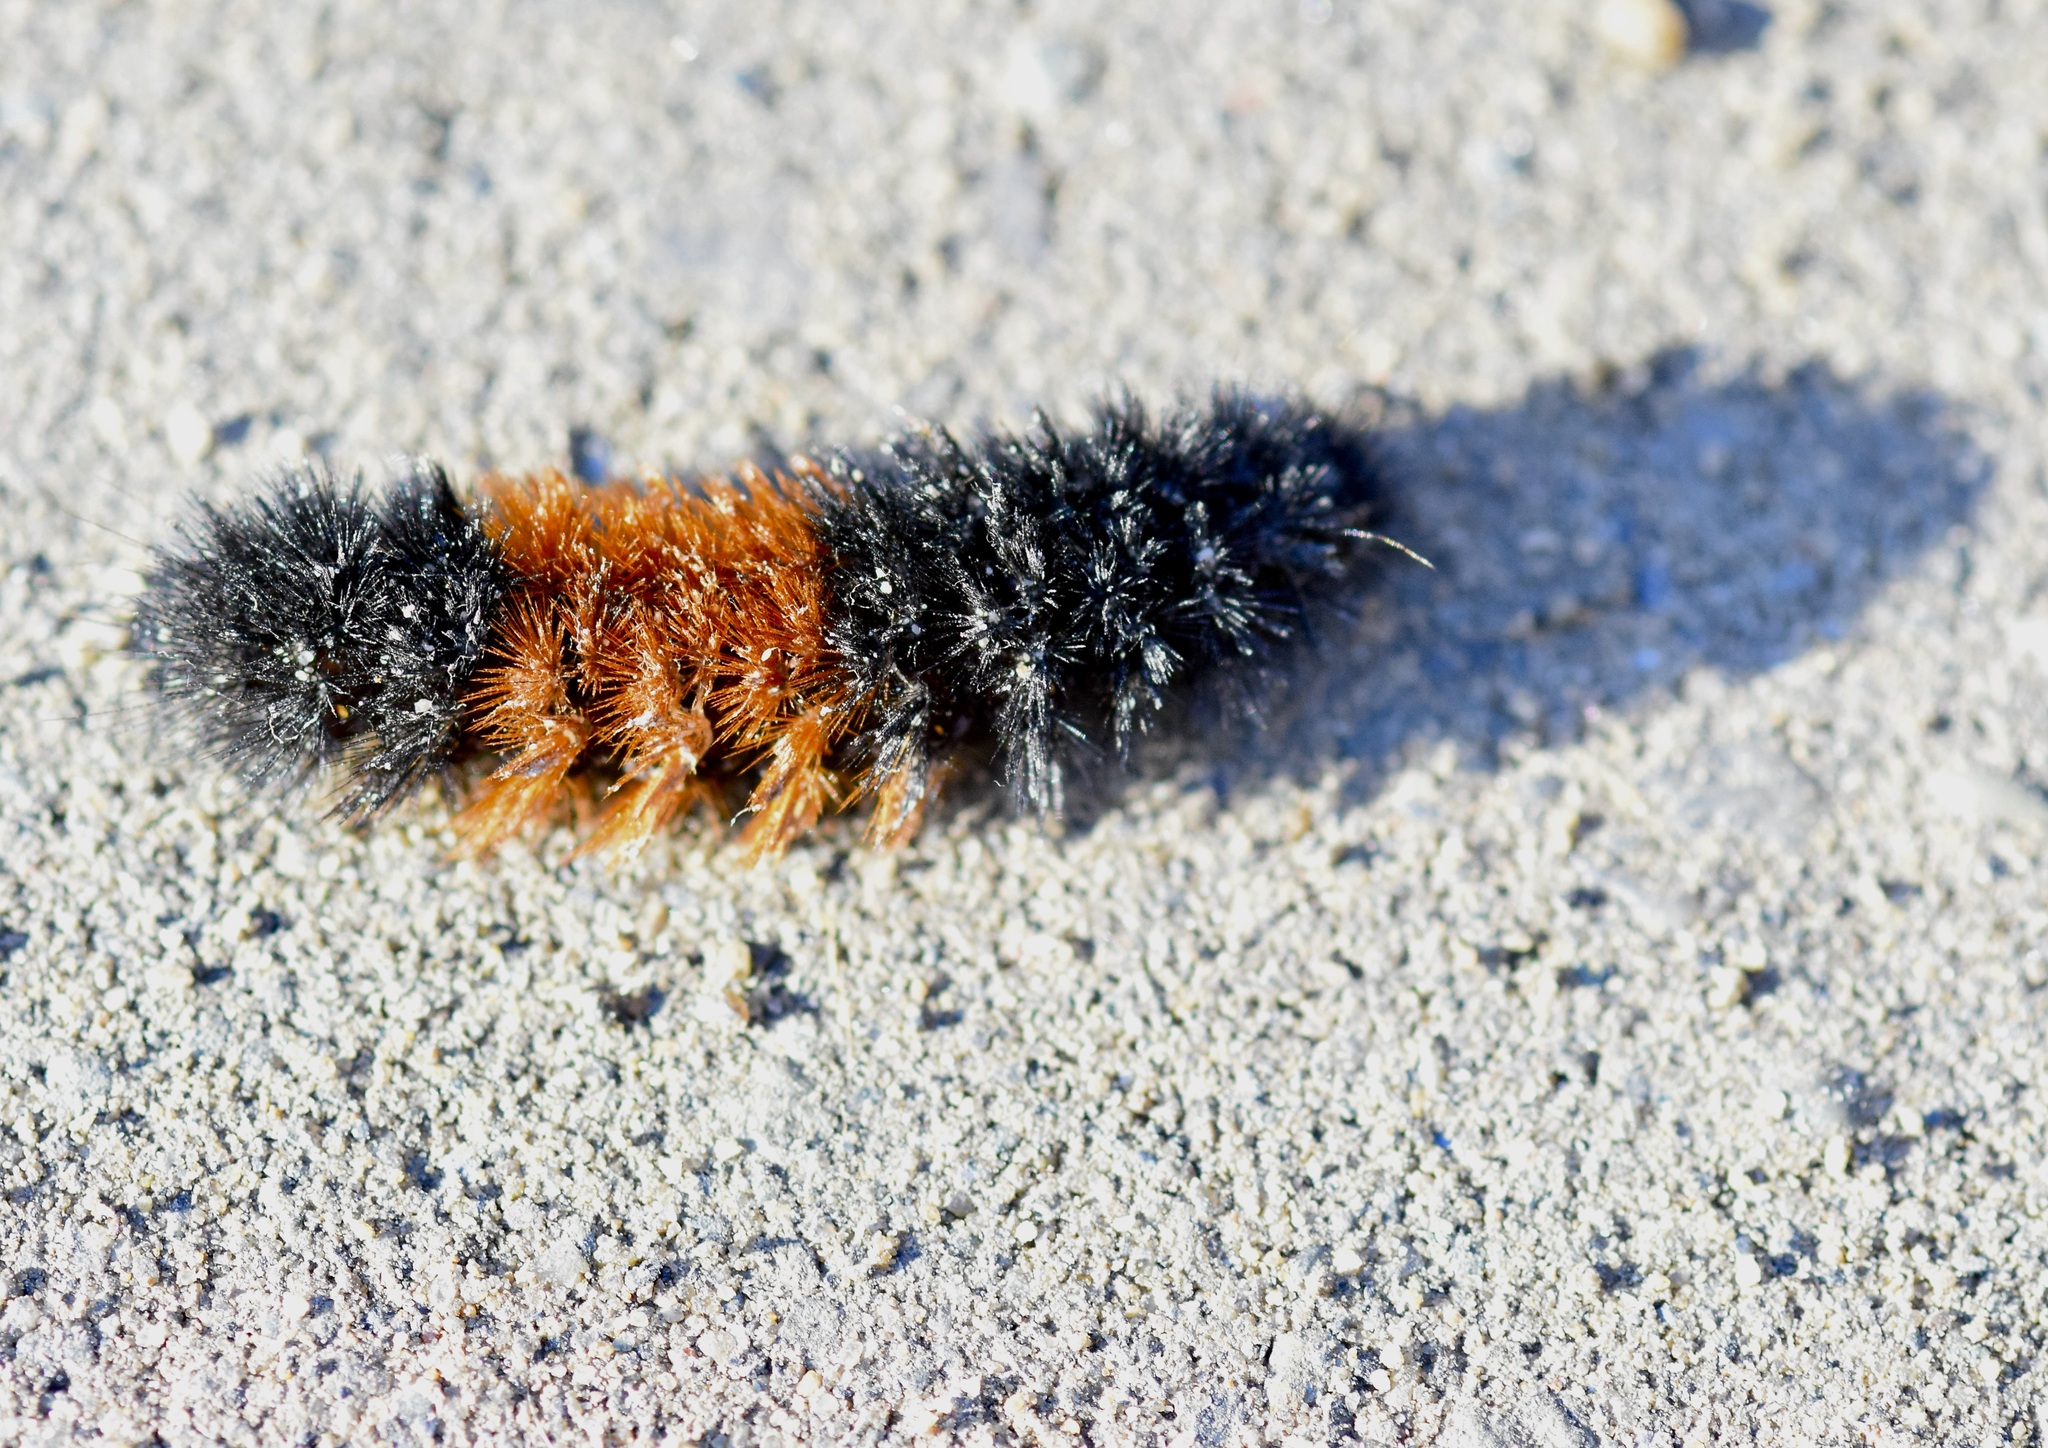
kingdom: Animalia
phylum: Arthropoda
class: Insecta
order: Lepidoptera
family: Erebidae
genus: Pyrrharctia
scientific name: Pyrrharctia isabella
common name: Isabella tiger moth
